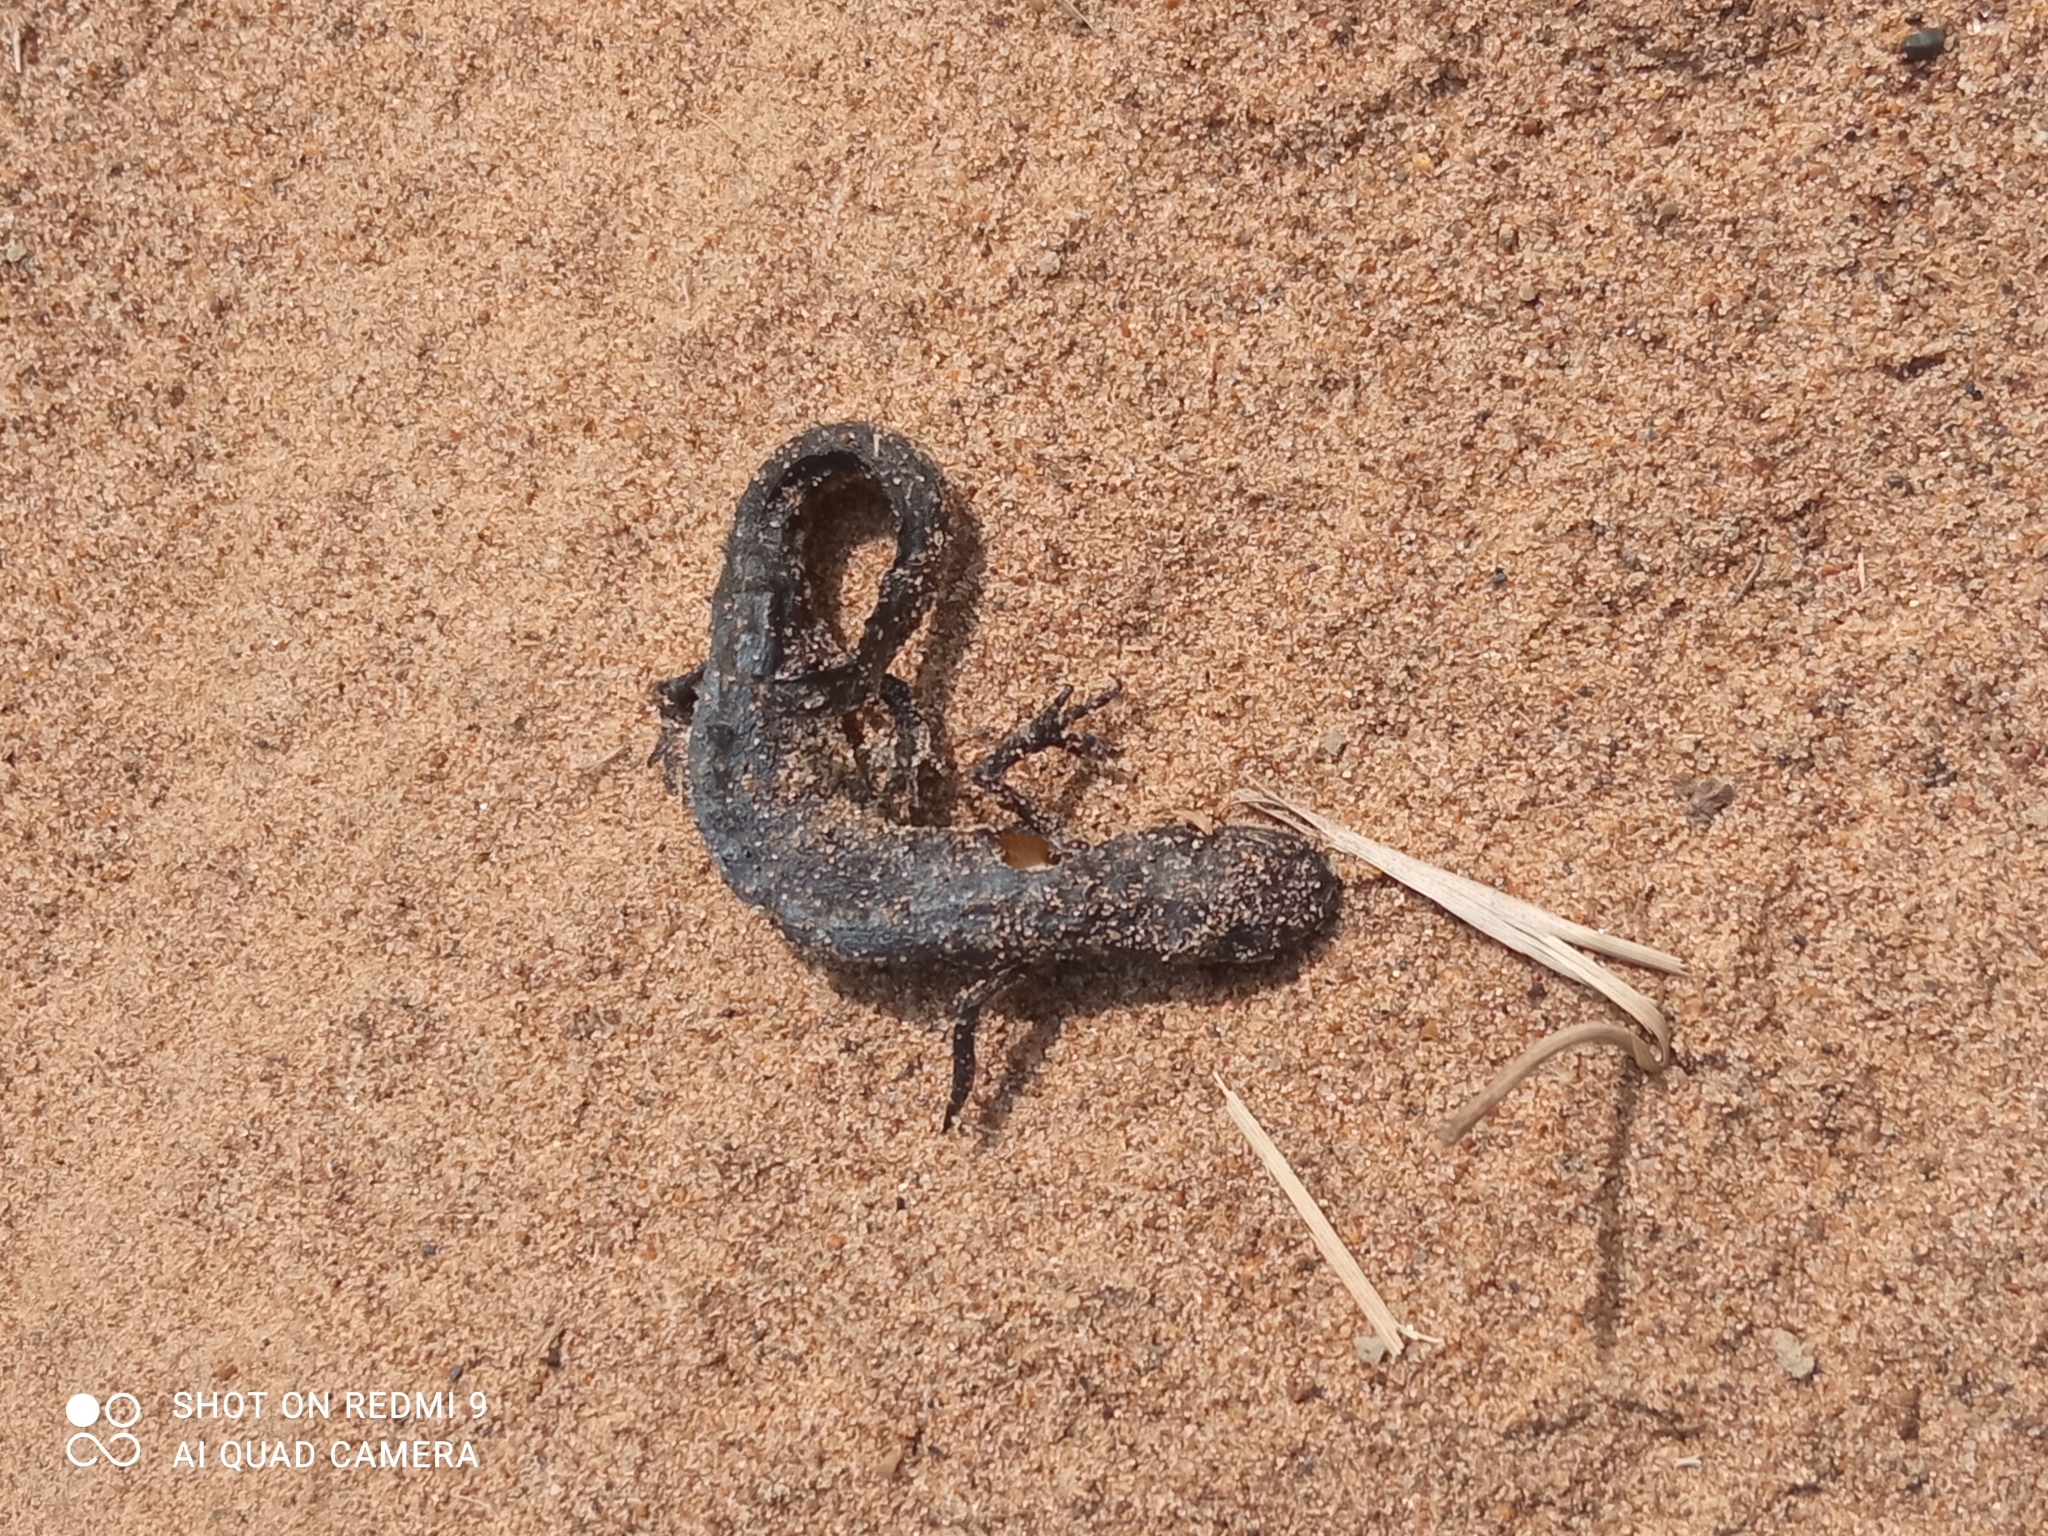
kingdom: Animalia
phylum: Chordata
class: Amphibia
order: Caudata
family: Salamandridae
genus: Lissotriton
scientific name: Lissotriton vulgaris
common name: Smooth newt
